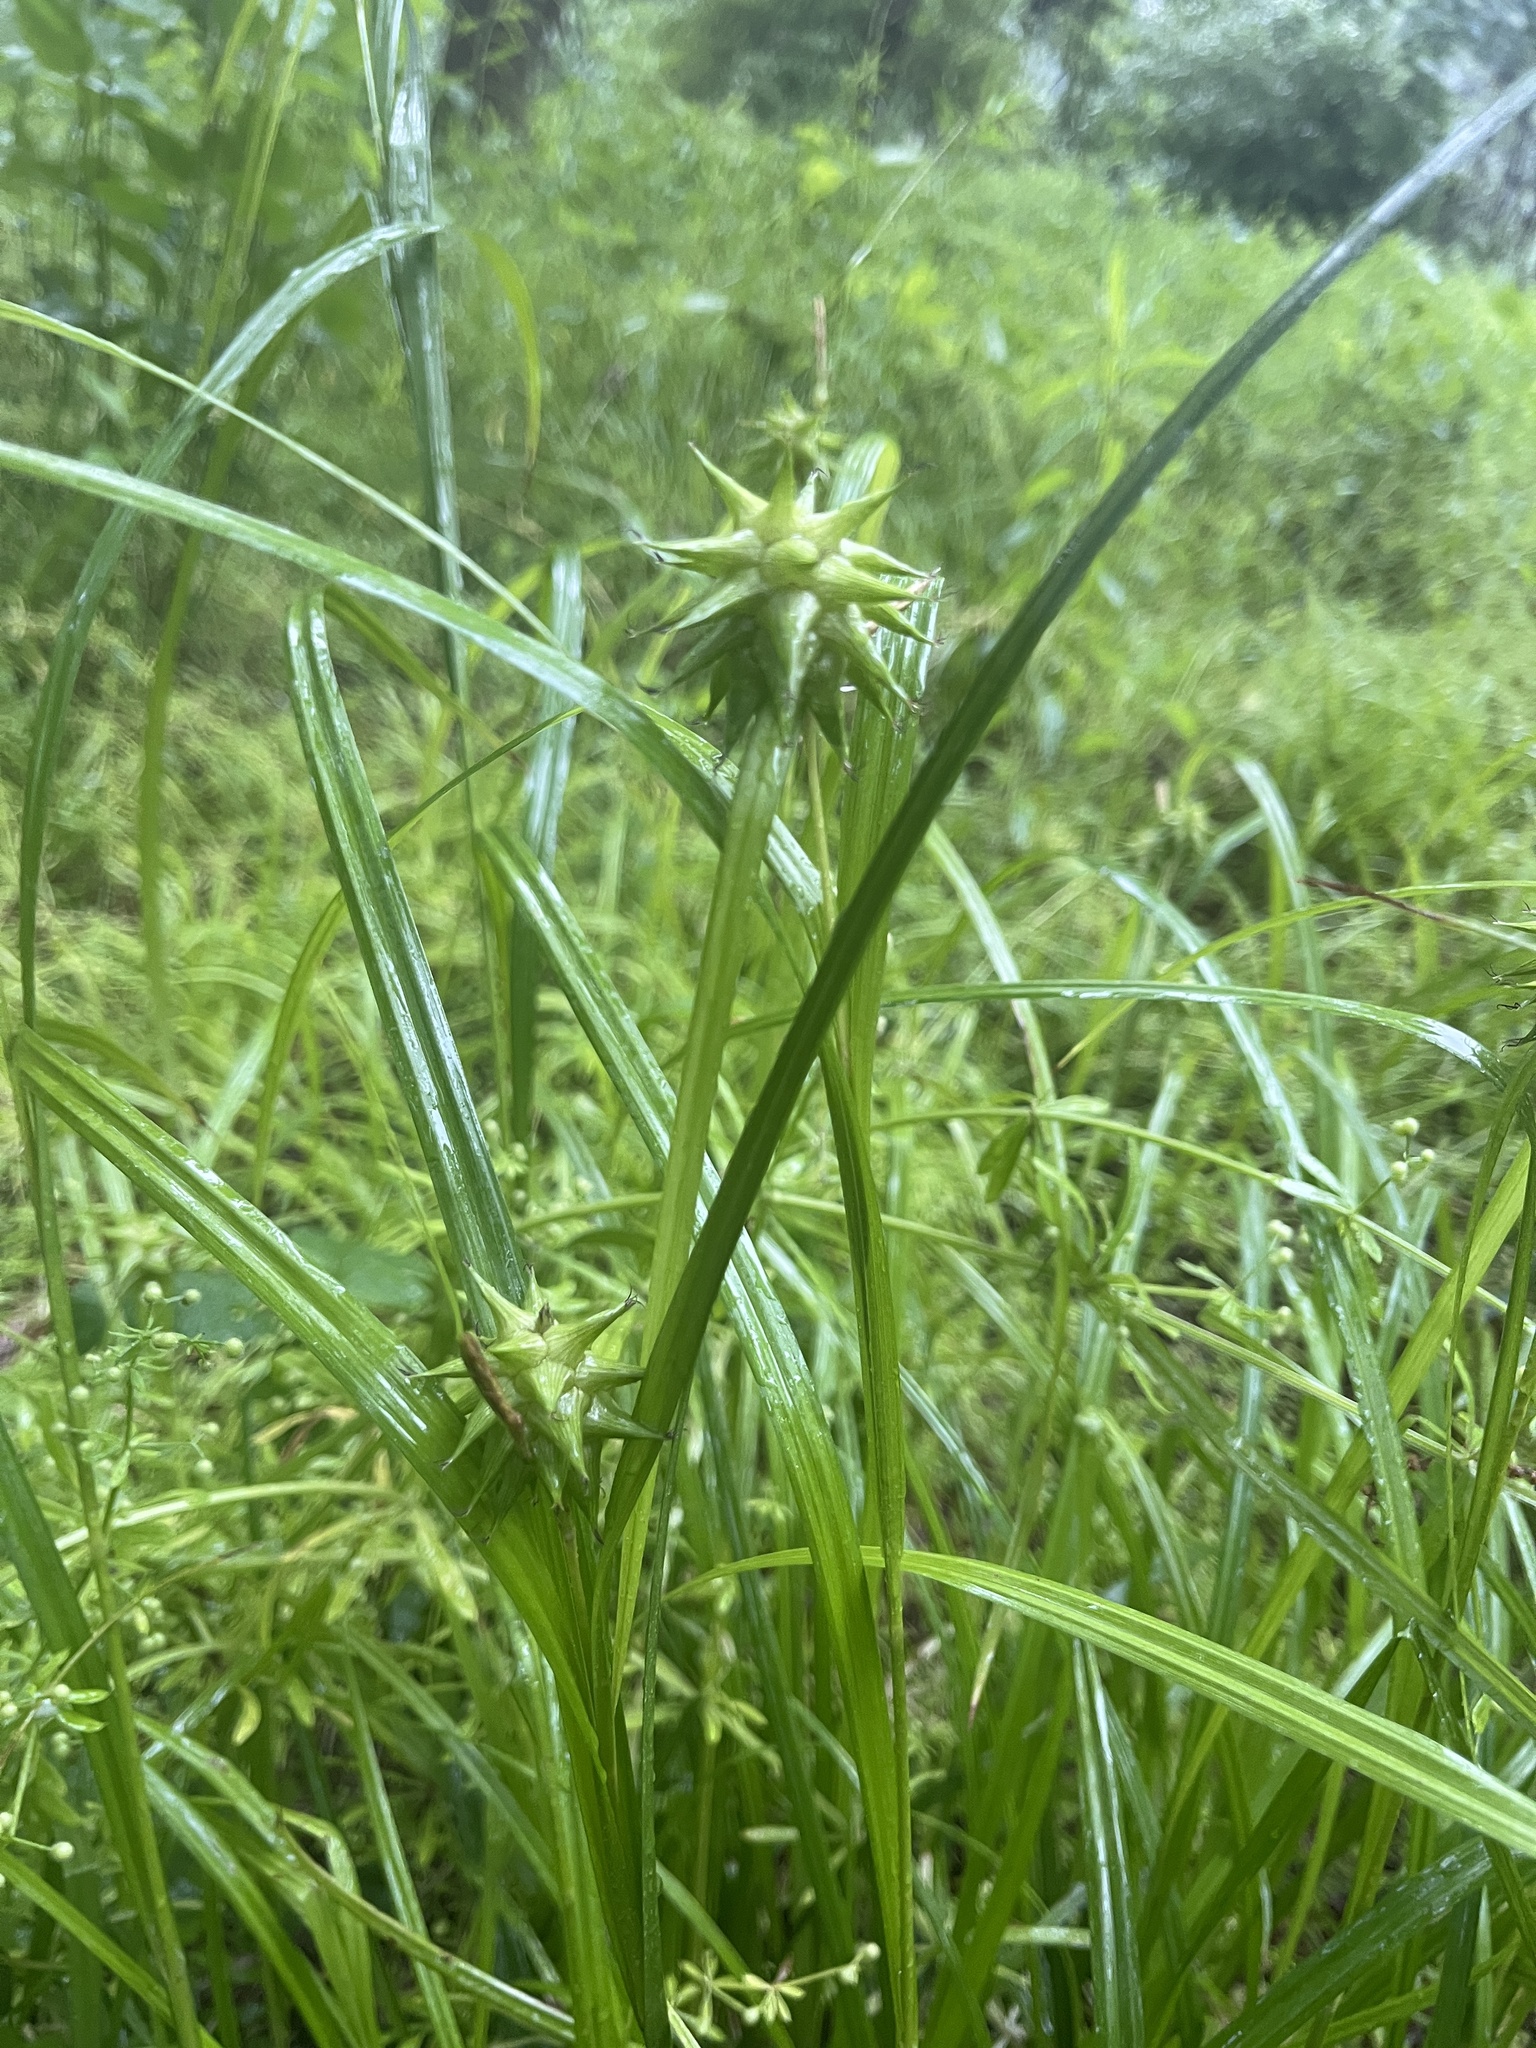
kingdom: Plantae
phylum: Tracheophyta
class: Liliopsida
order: Poales
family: Cyperaceae
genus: Carex
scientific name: Carex grayi
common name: Asa gray's sedge
